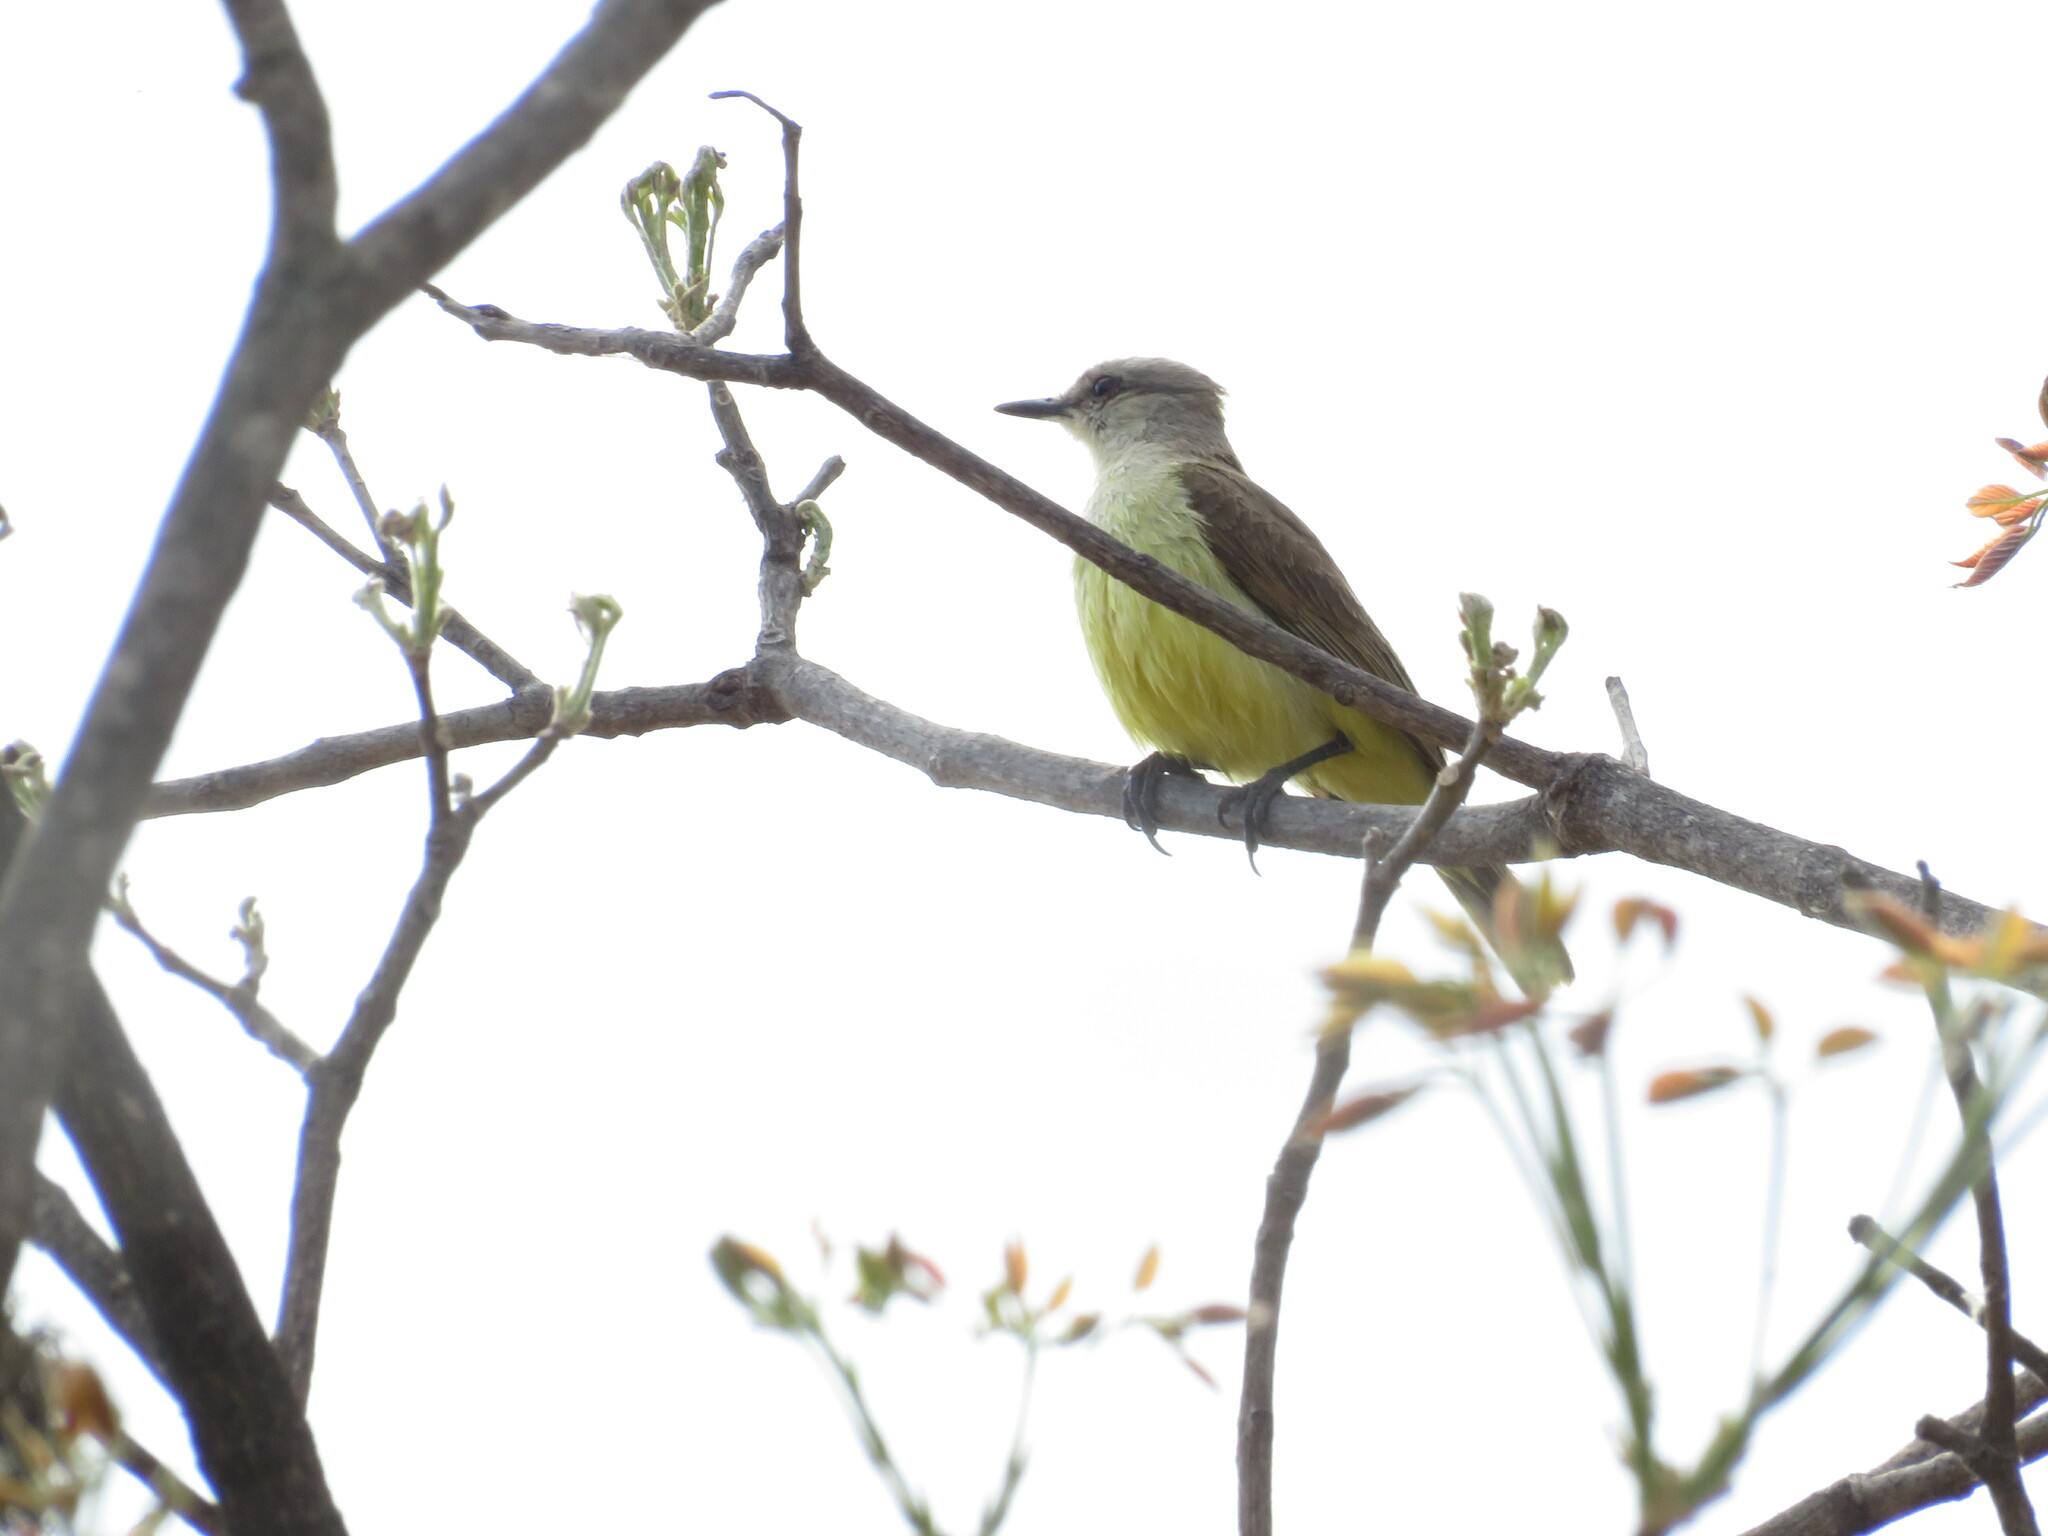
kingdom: Animalia
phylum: Chordata
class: Aves
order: Passeriformes
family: Tyrannidae
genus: Machetornis
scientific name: Machetornis rixosa
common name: Cattle tyrant
